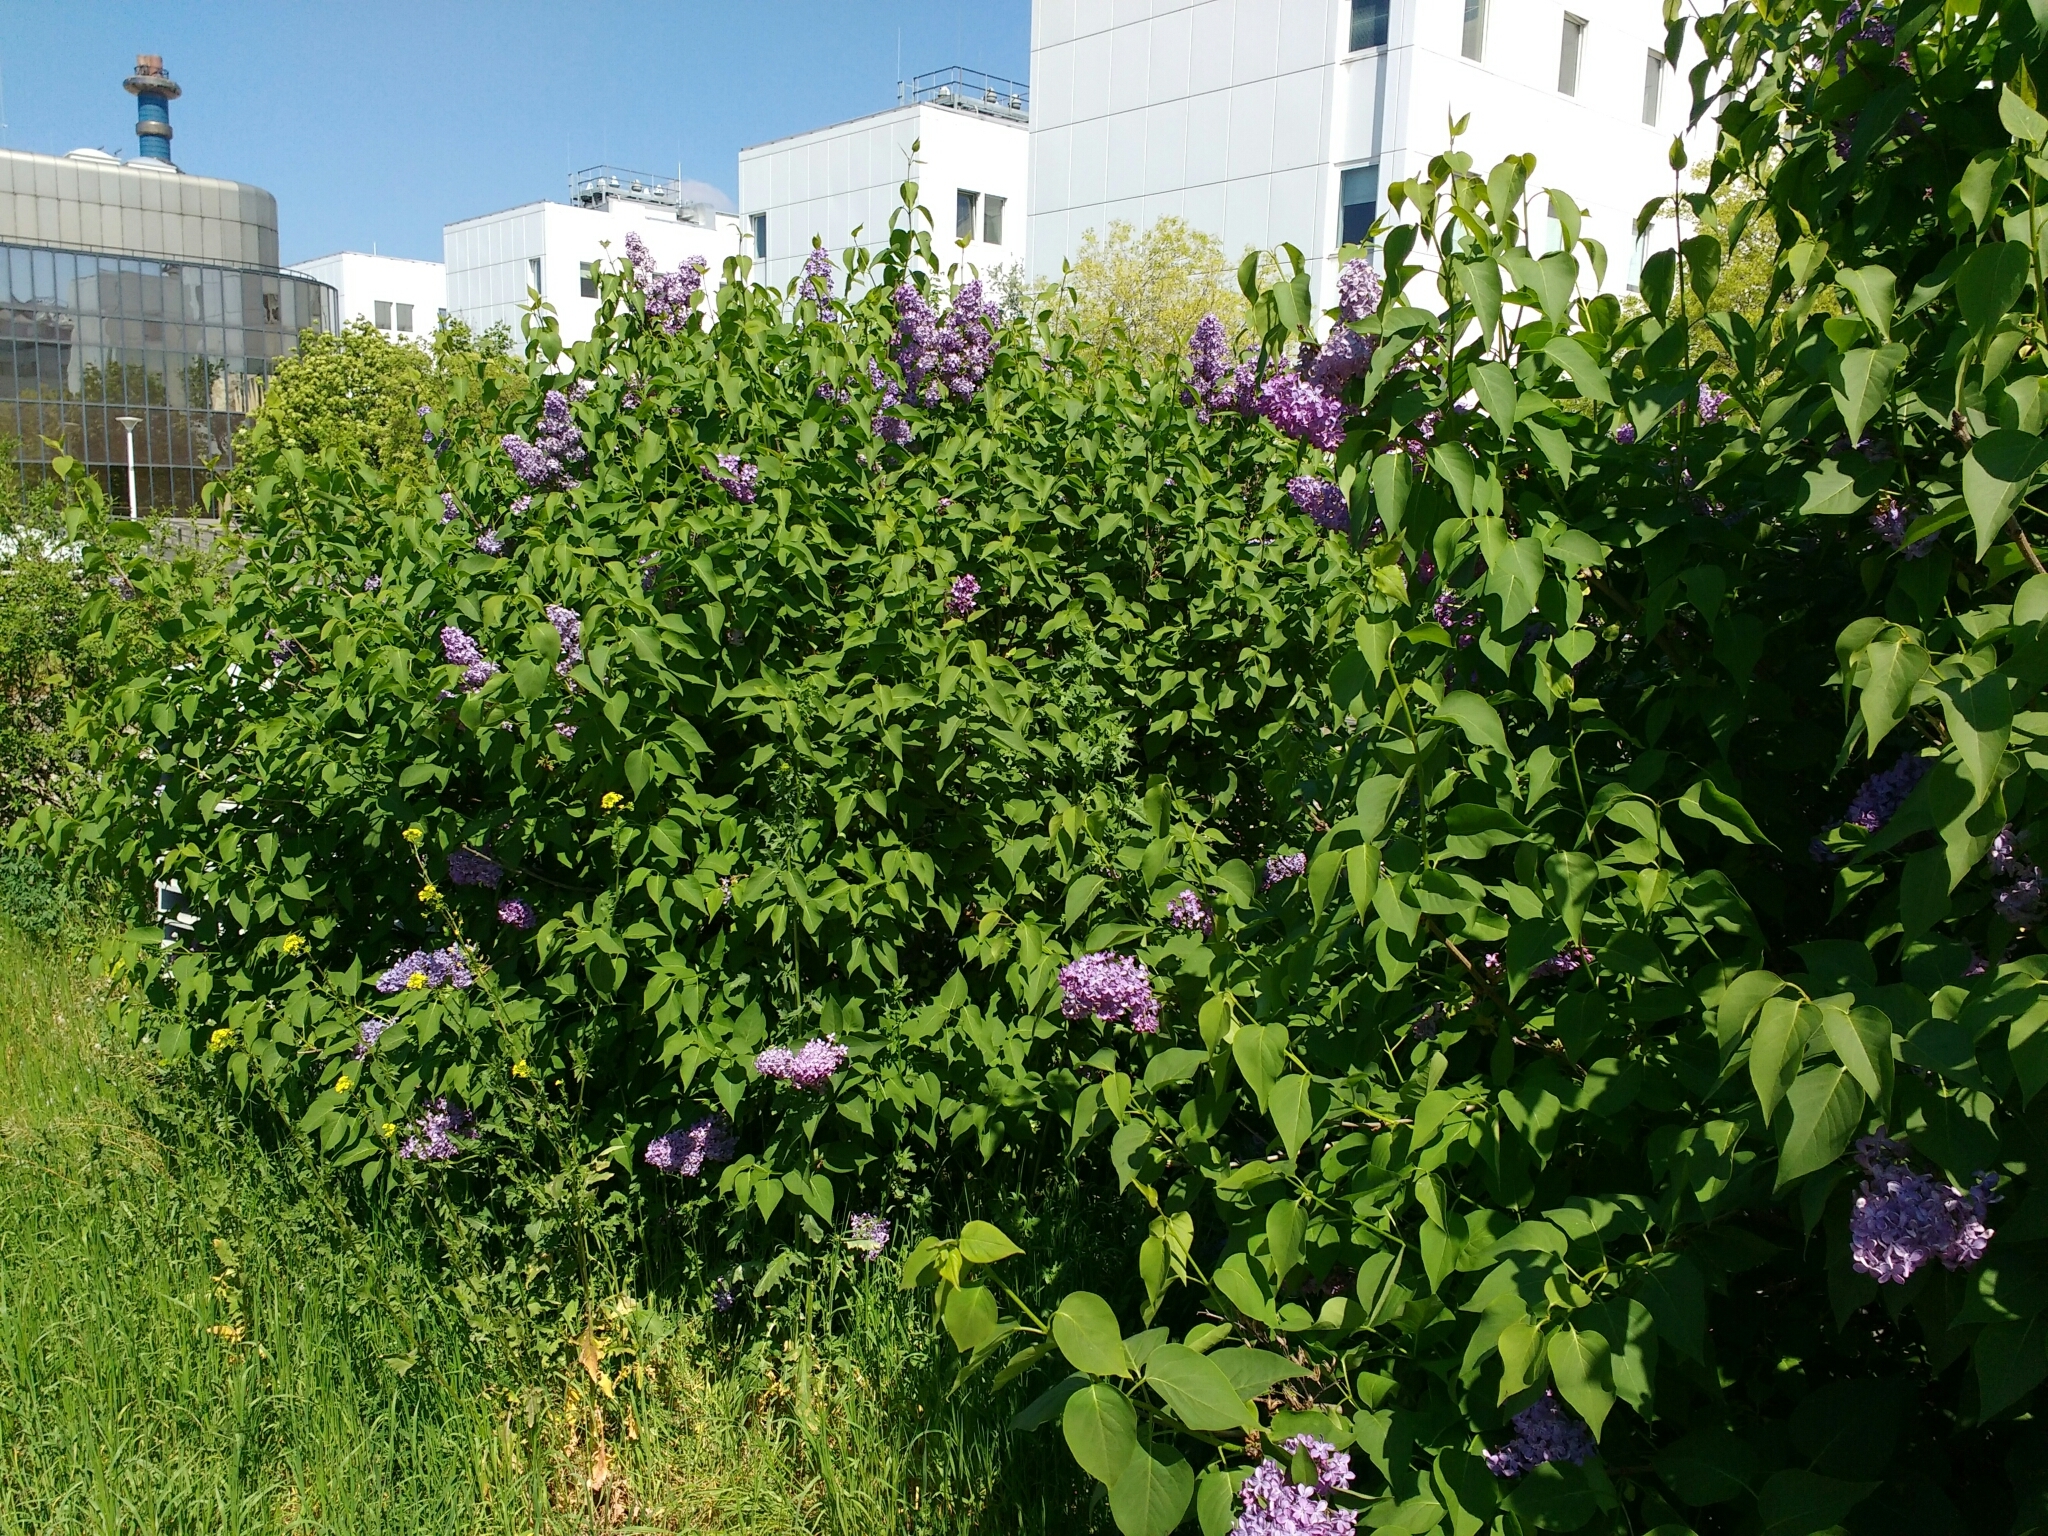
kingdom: Plantae
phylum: Tracheophyta
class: Magnoliopsida
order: Lamiales
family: Oleaceae
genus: Syringa
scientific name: Syringa vulgaris
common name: Common lilac
